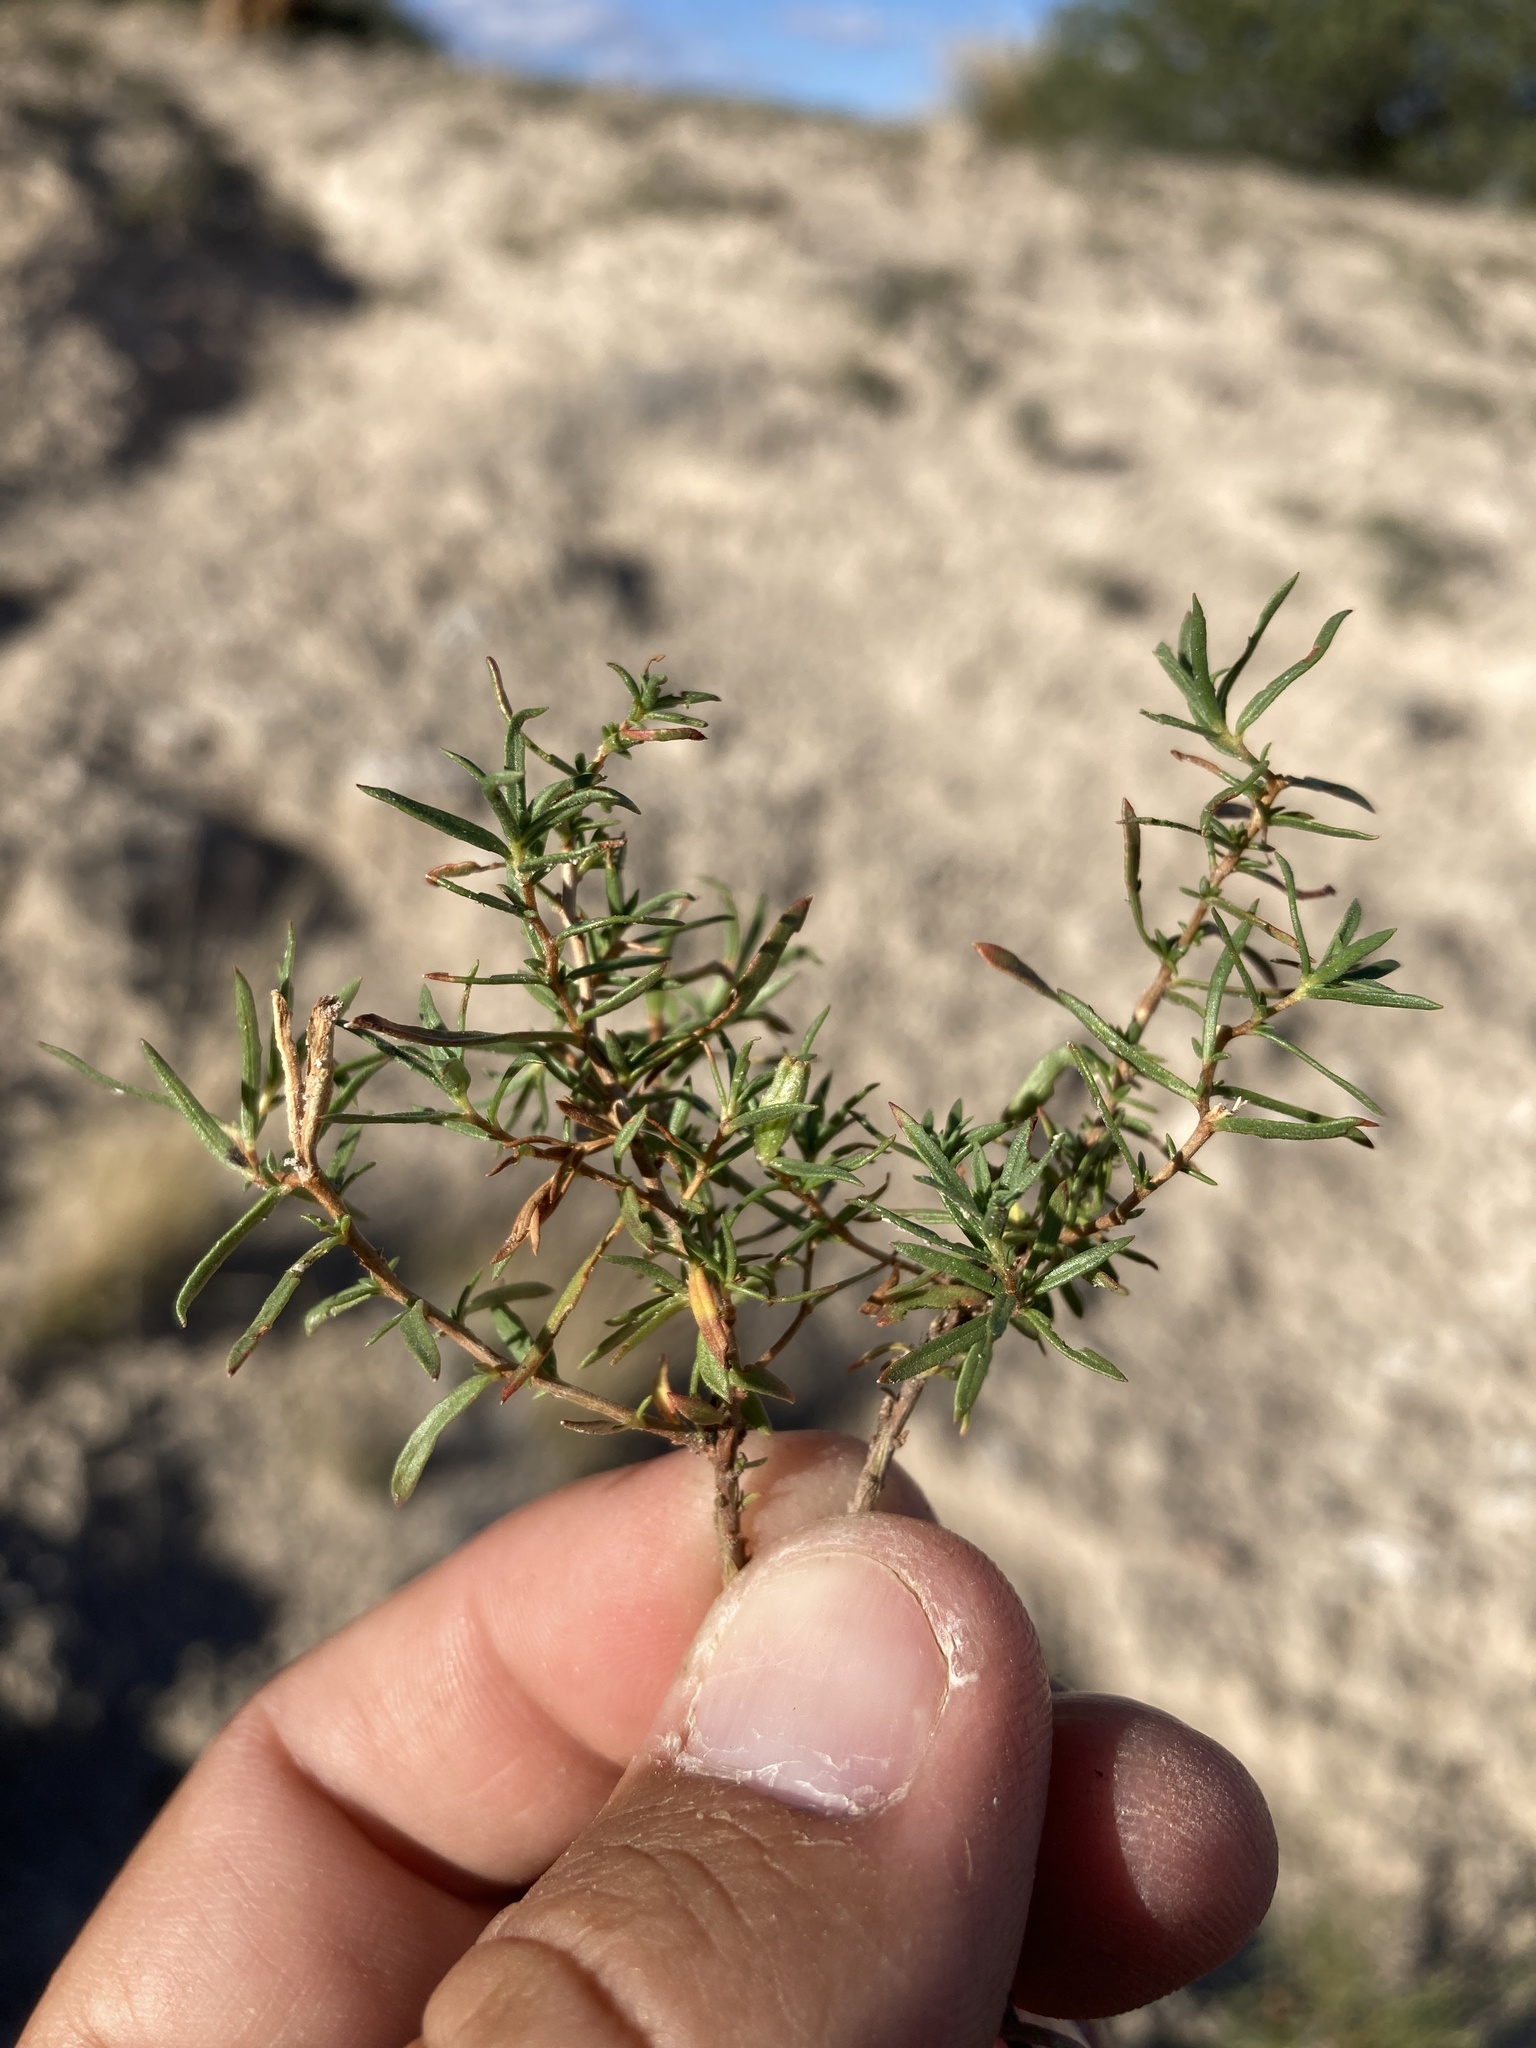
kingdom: Plantae
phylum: Tracheophyta
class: Magnoliopsida
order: Myrtales
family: Onagraceae
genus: Oenothera
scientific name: Oenothera hartwegii
